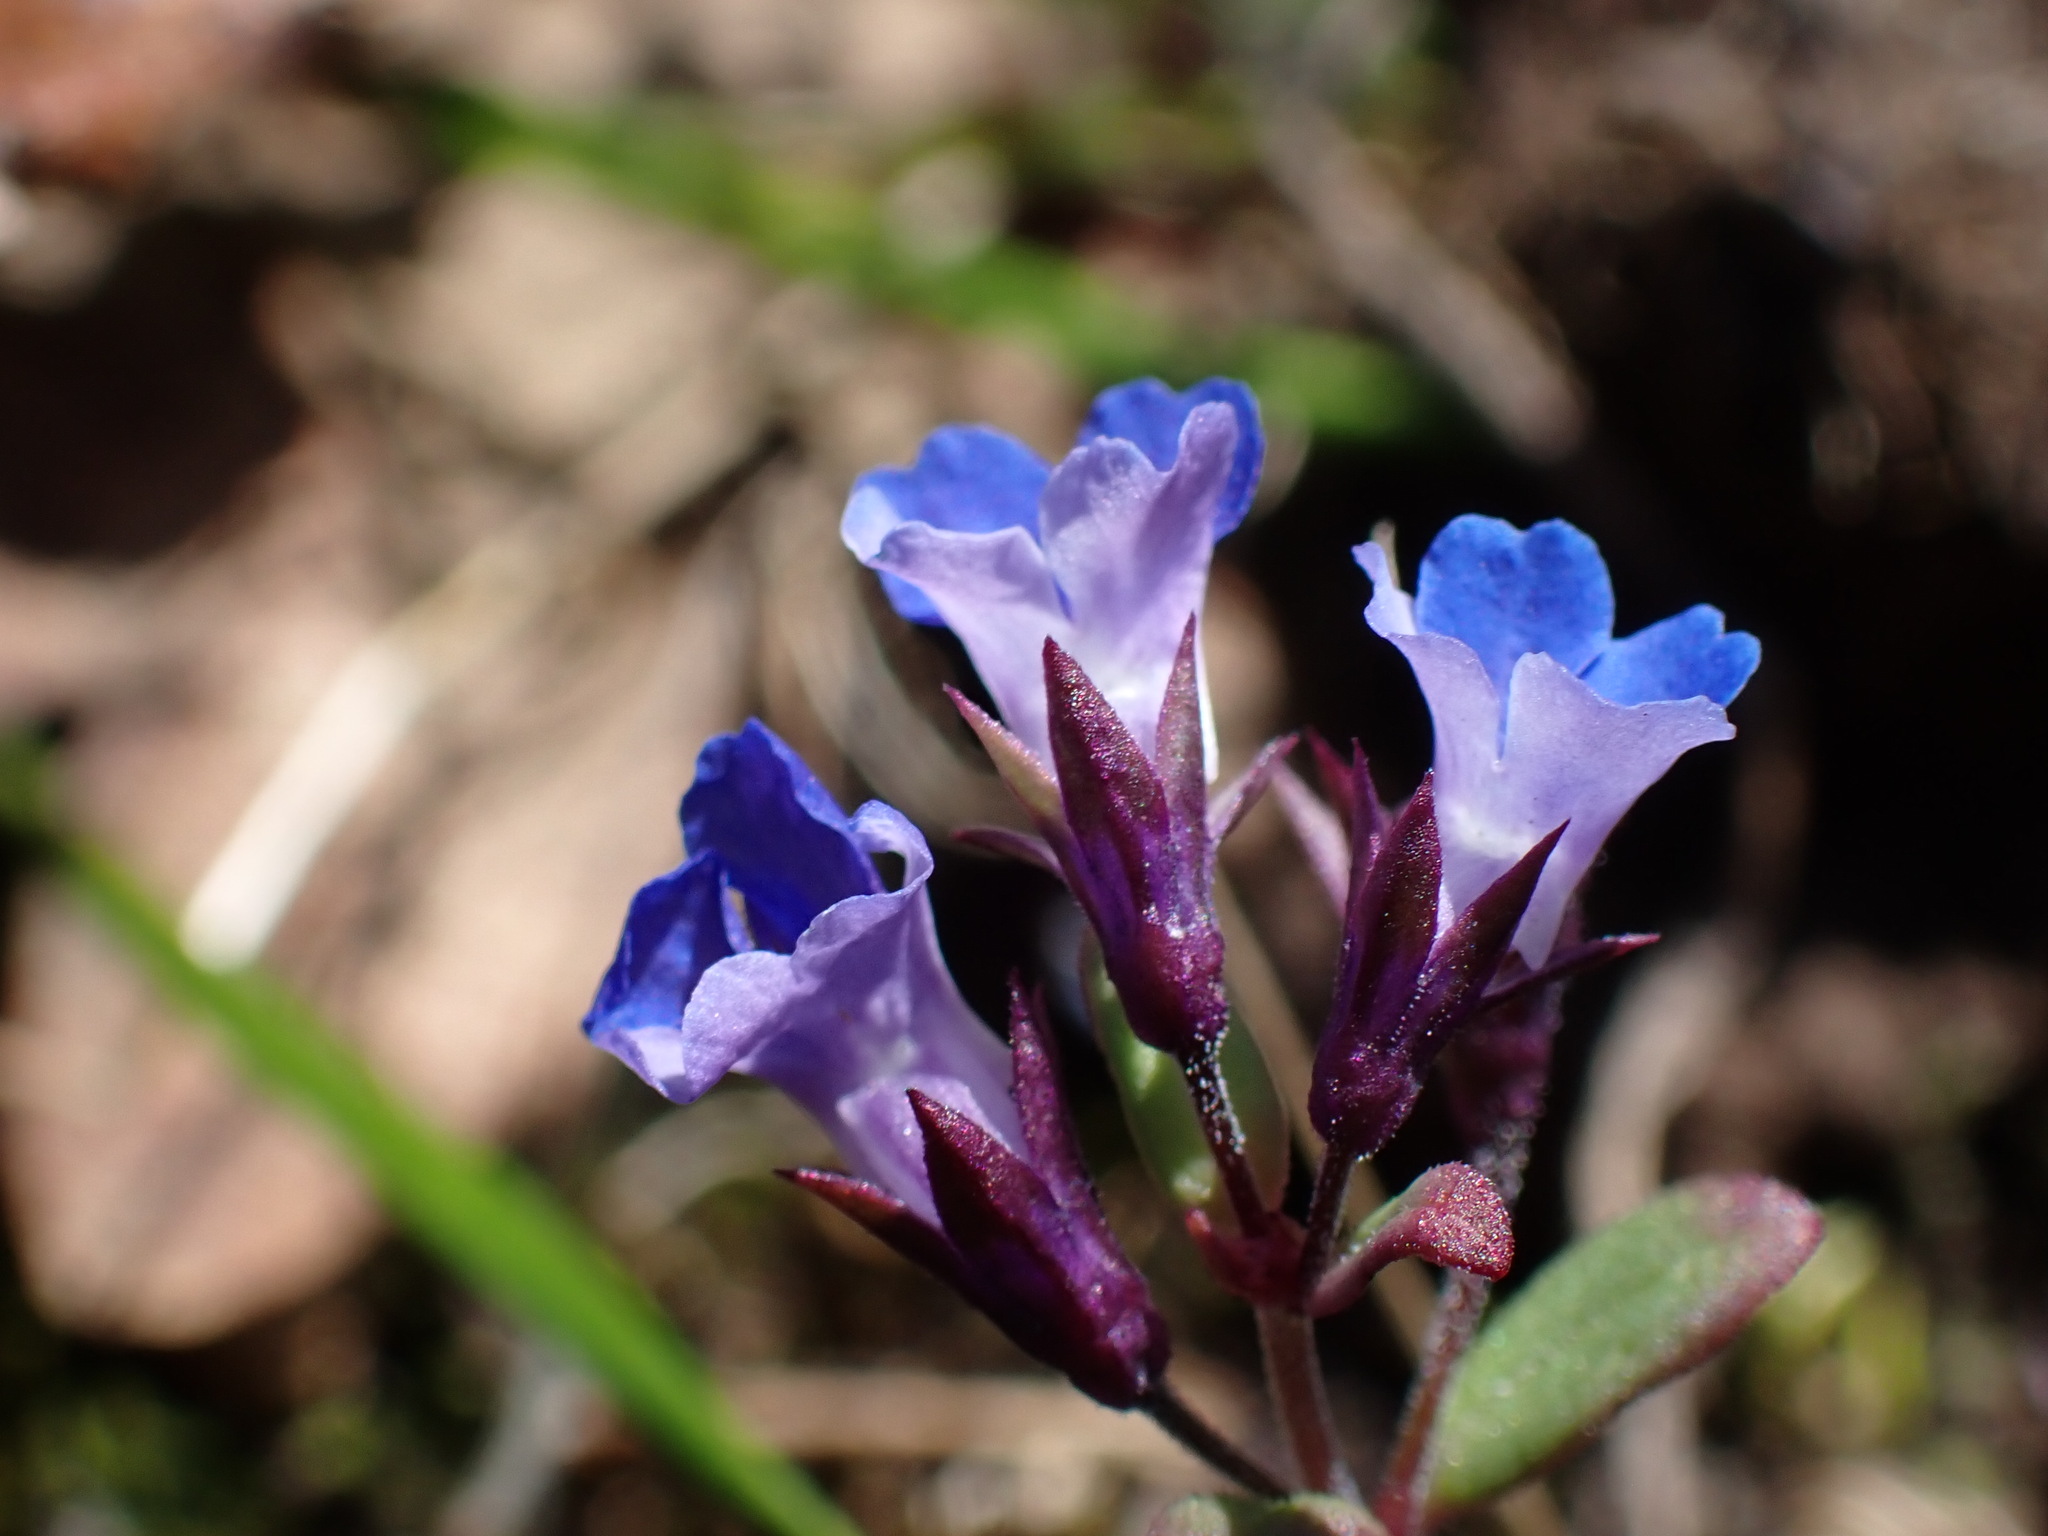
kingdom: Plantae
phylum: Tracheophyta
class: Magnoliopsida
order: Lamiales
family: Plantaginaceae
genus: Collinsia
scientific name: Collinsia parviflora
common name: Blue-lips
